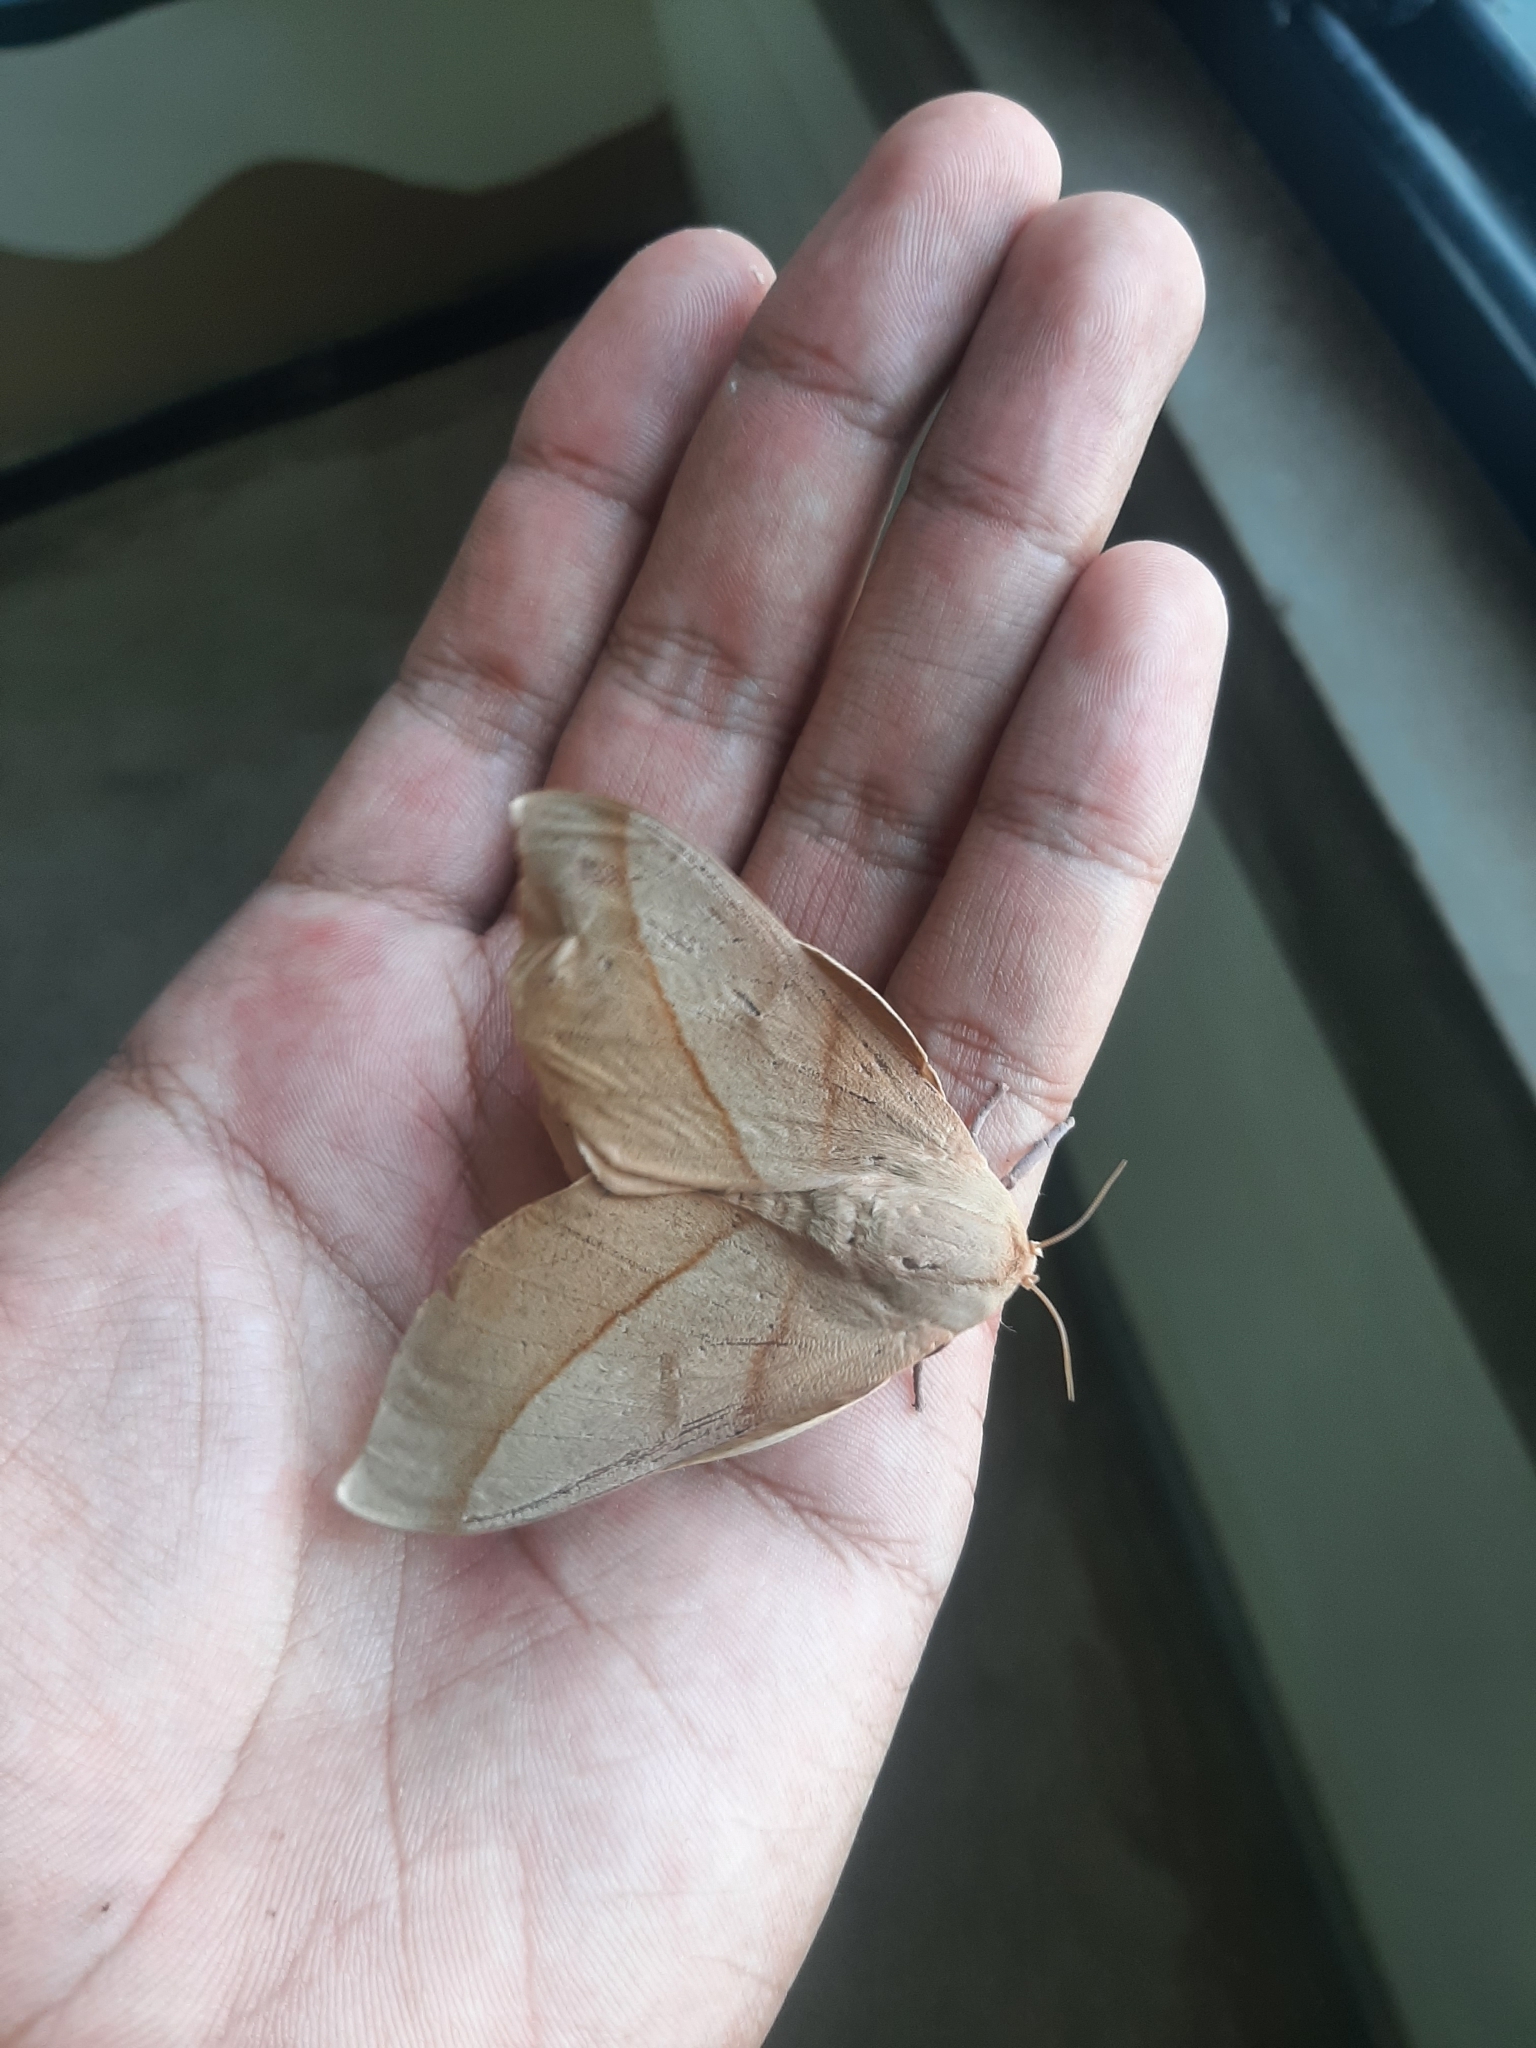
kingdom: Animalia
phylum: Arthropoda
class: Insecta
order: Lepidoptera
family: Saturniidae
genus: Syssphinx
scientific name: Syssphinx molina
